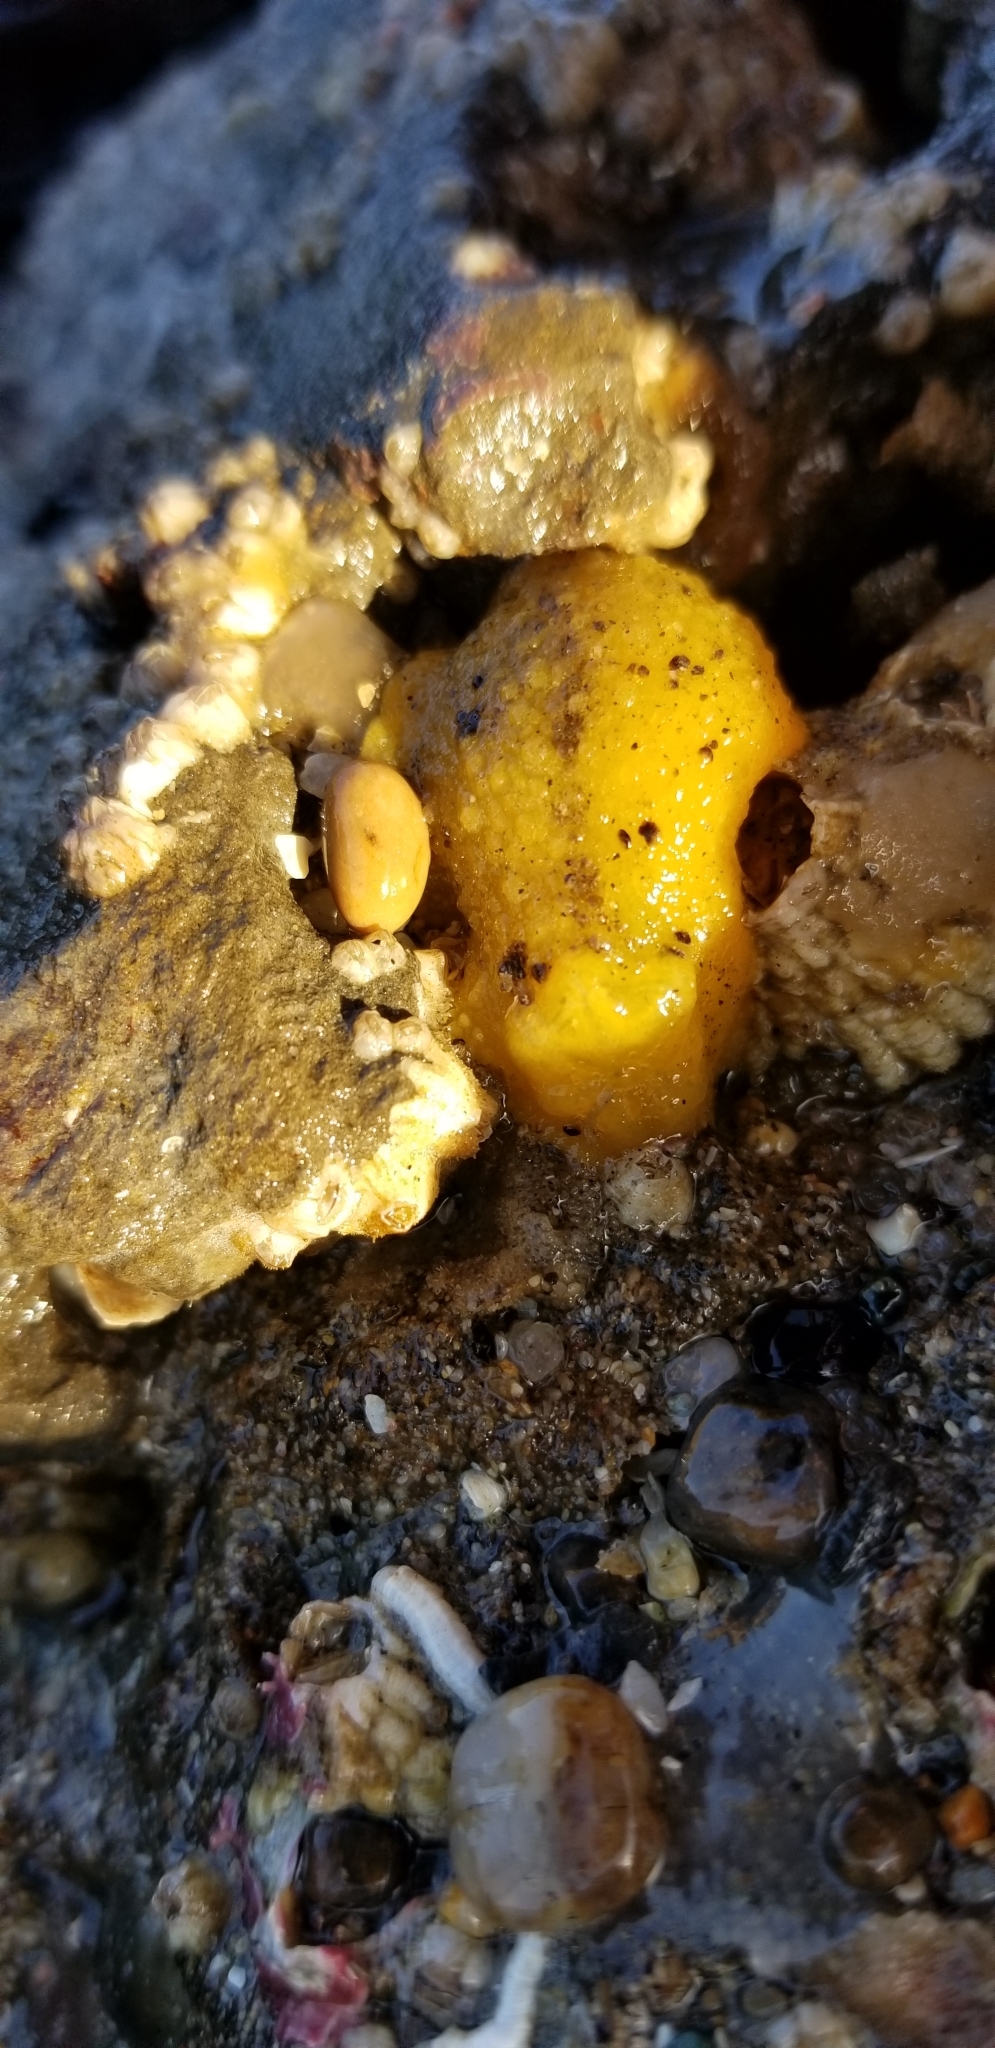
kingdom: Animalia
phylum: Mollusca
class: Gastropoda
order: Nudibranchia
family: Dorididae
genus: Doris
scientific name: Doris montereyensis
